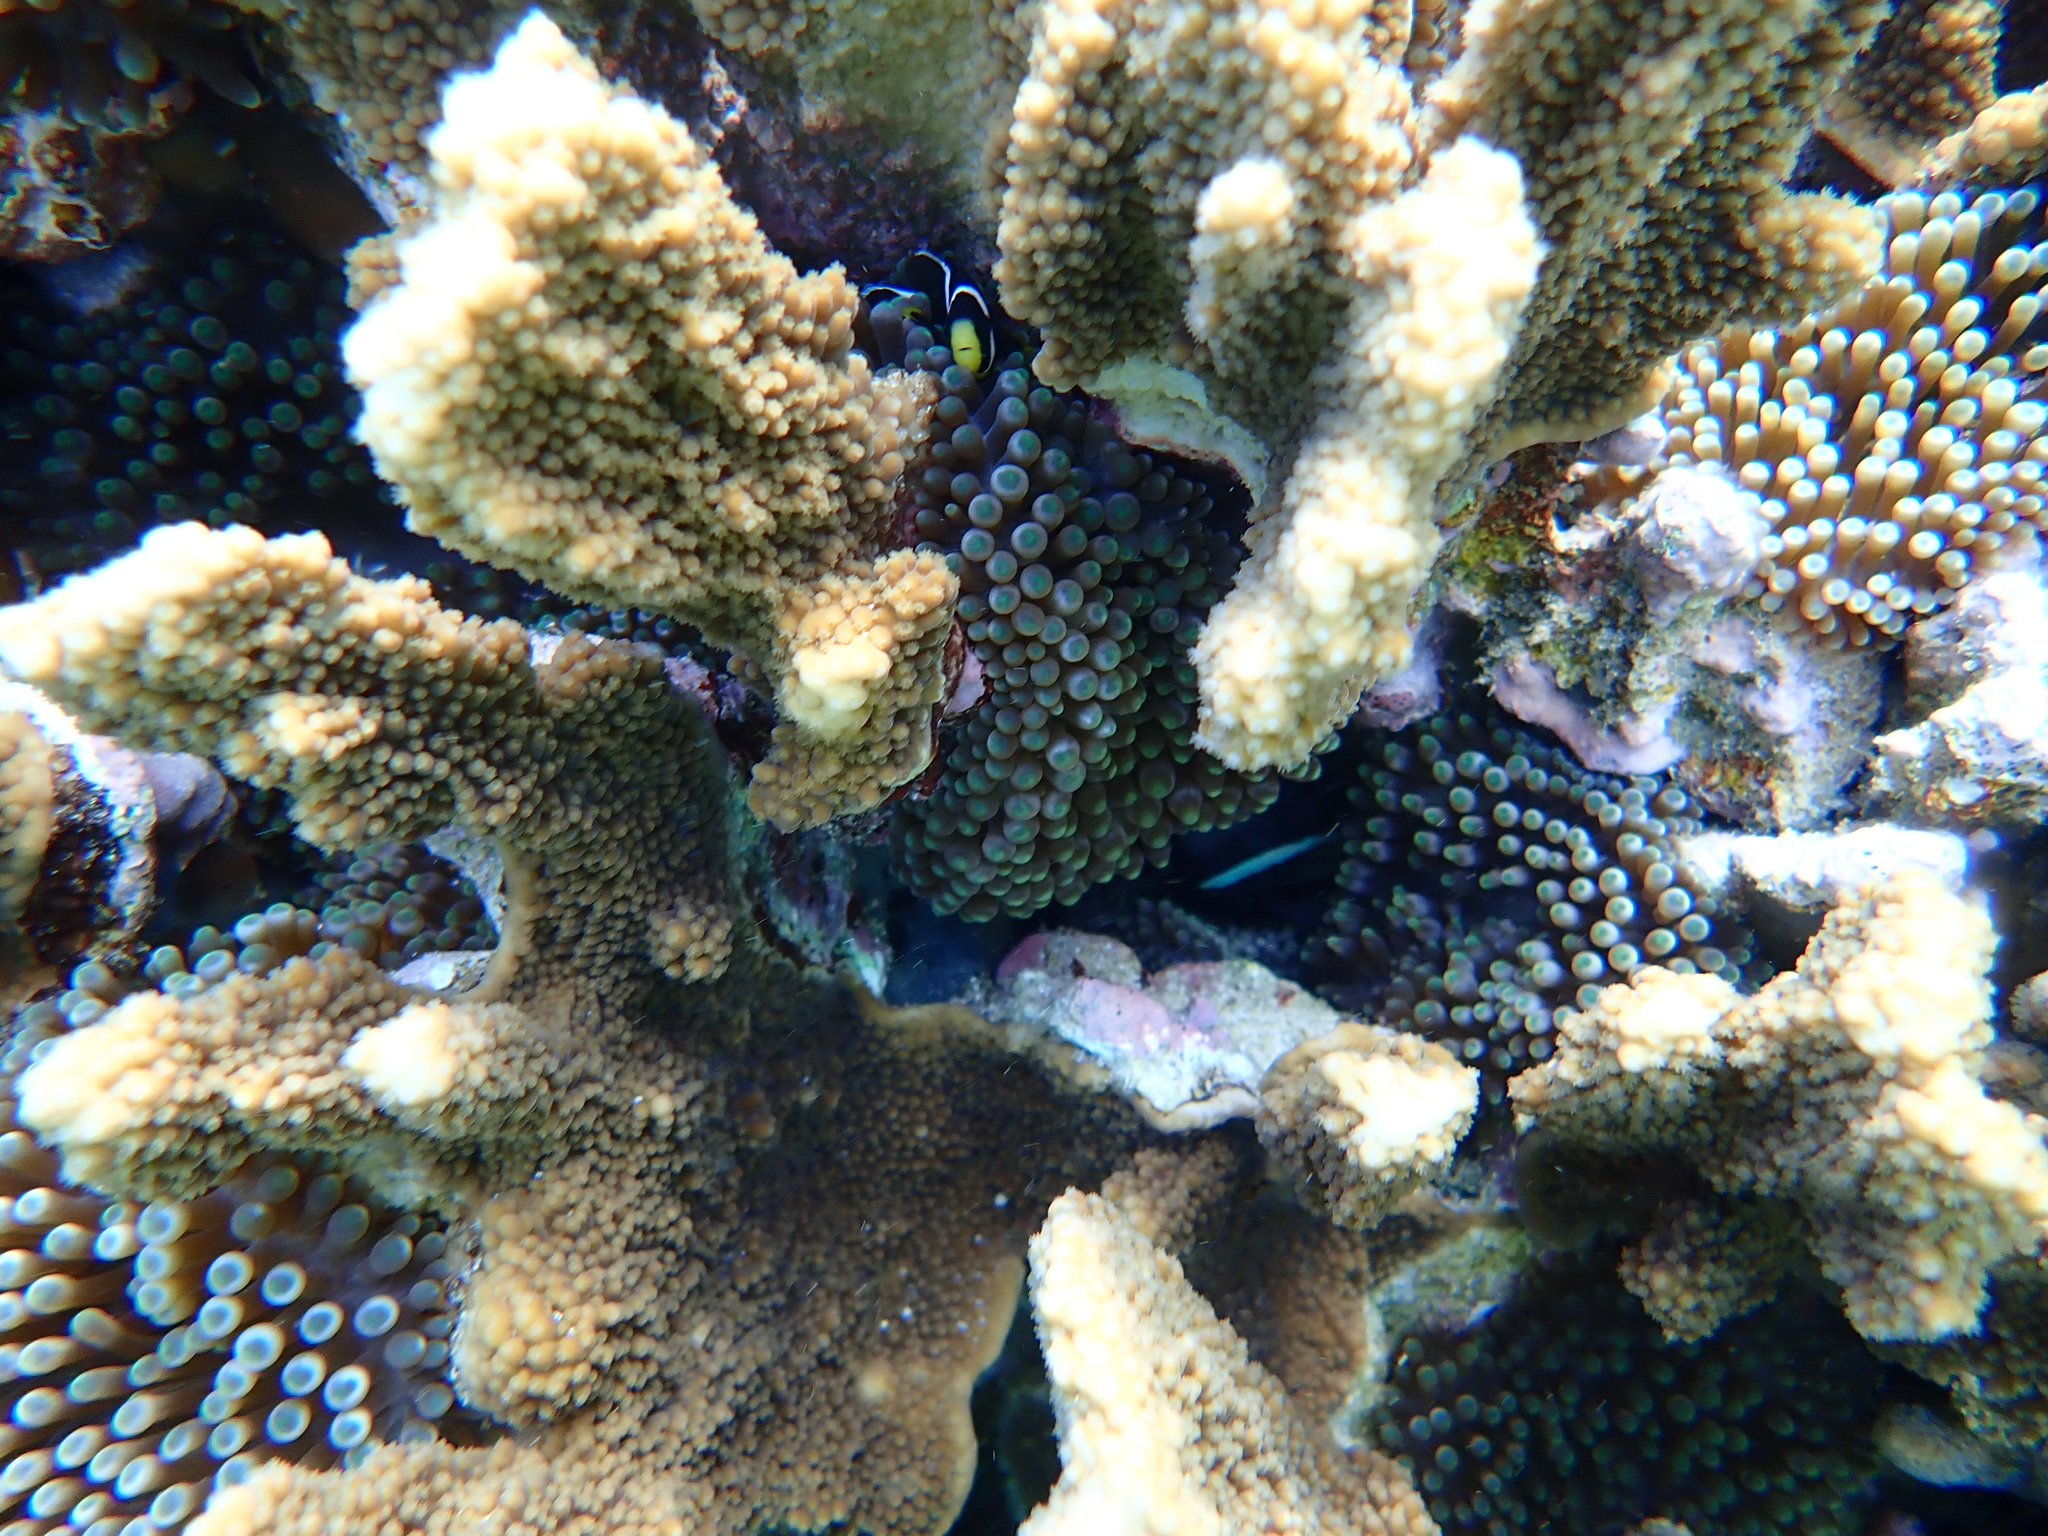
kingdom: Animalia
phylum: Chordata
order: Perciformes
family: Pomacentridae
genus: Amphiprion
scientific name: Amphiprion mccullochi
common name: Mcculloch's anemonefish
